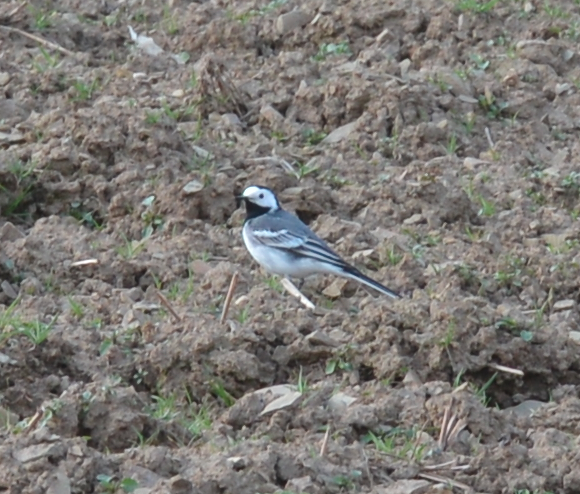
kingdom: Animalia
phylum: Chordata
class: Aves
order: Passeriformes
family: Motacillidae
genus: Motacilla
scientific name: Motacilla alba
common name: White wagtail
